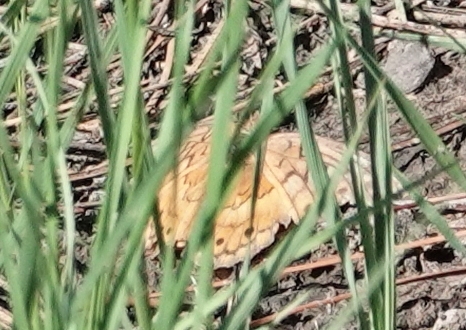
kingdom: Animalia
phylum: Arthropoda
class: Insecta
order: Lepidoptera
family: Nymphalidae
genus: Euptoieta
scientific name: Euptoieta claudia
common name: Variegated fritillary
